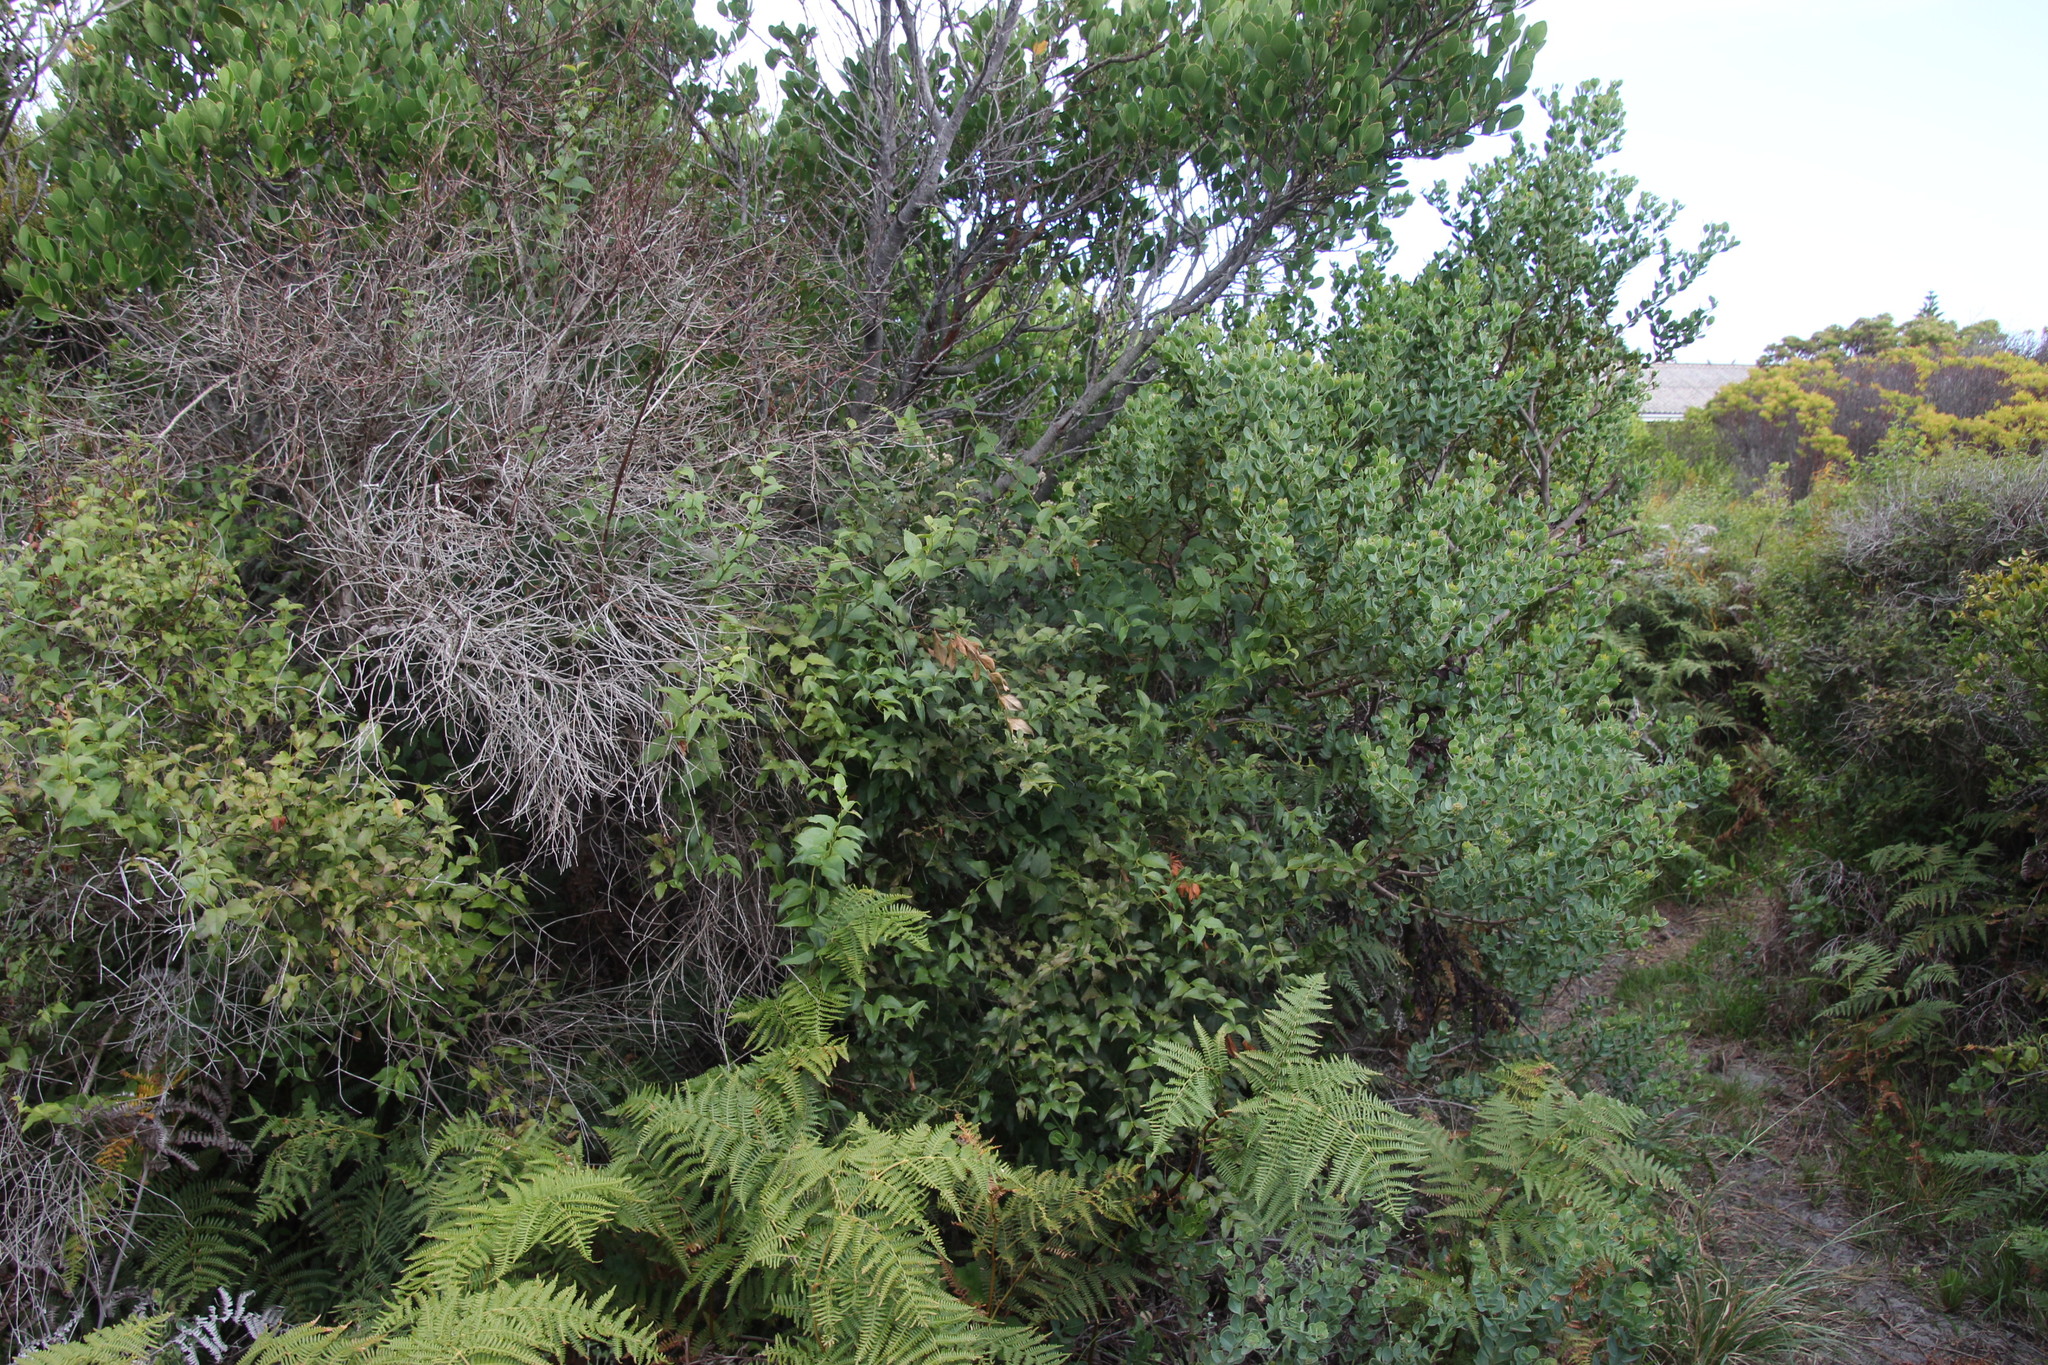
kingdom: Plantae
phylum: Tracheophyta
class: Magnoliopsida
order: Lamiales
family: Stilbaceae
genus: Halleria
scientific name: Halleria lucida
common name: Tree fuschia
